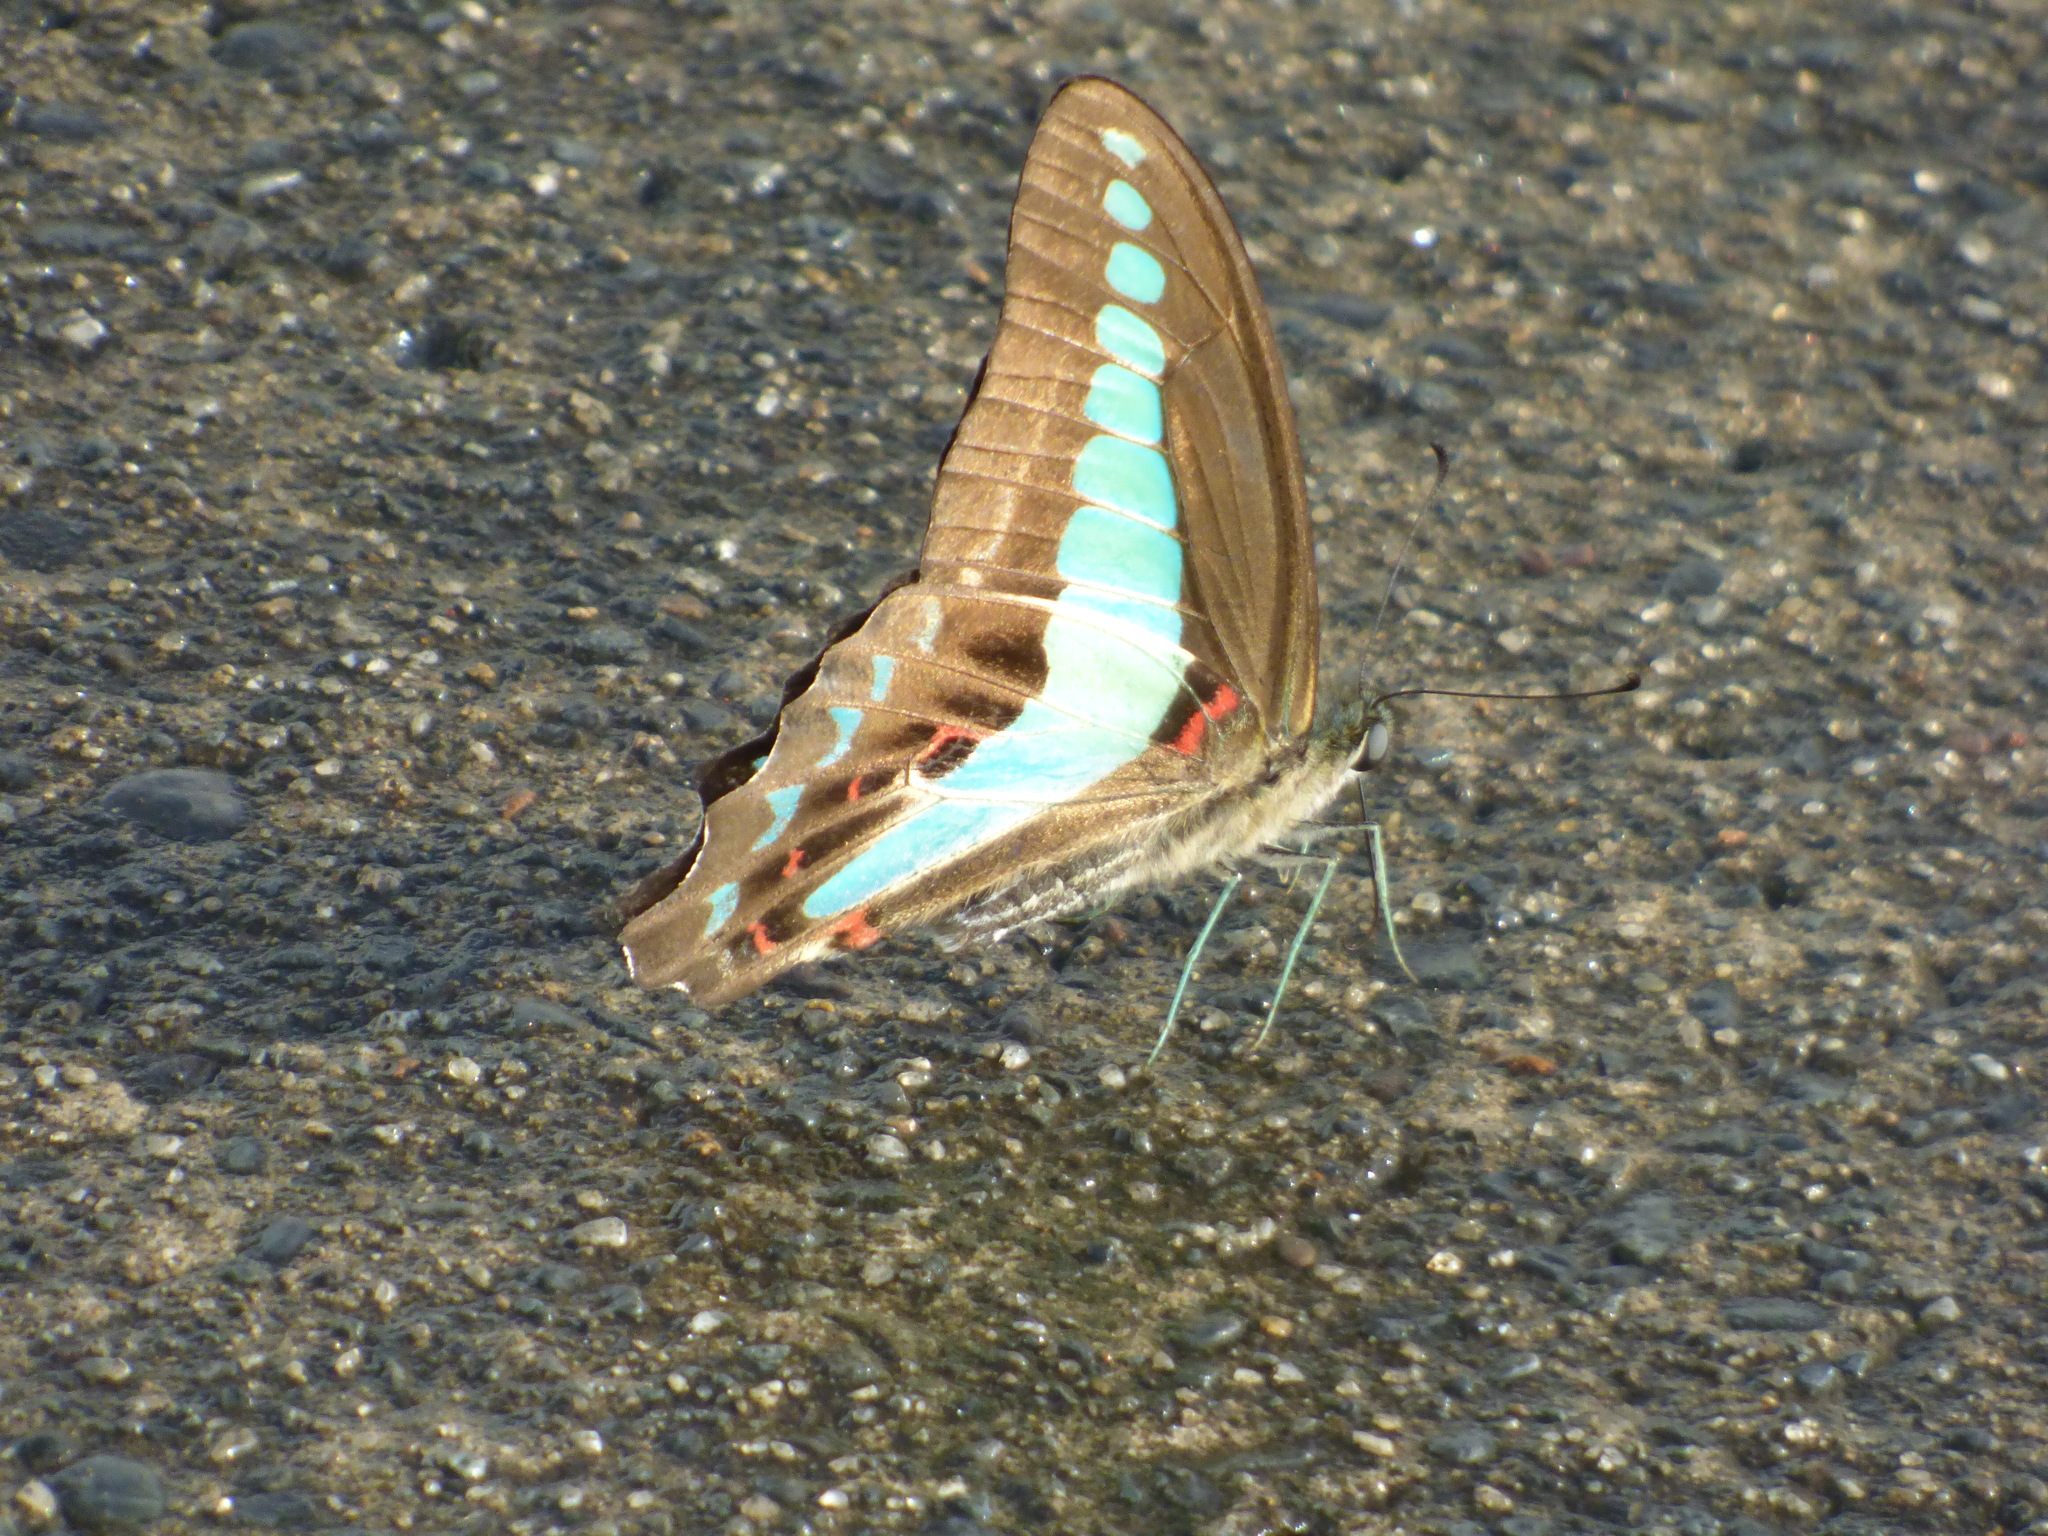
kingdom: Fungi
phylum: Ascomycota
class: Sordariomycetes
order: Microascales
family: Microascaceae
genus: Graphium
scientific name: Graphium sarpedon
